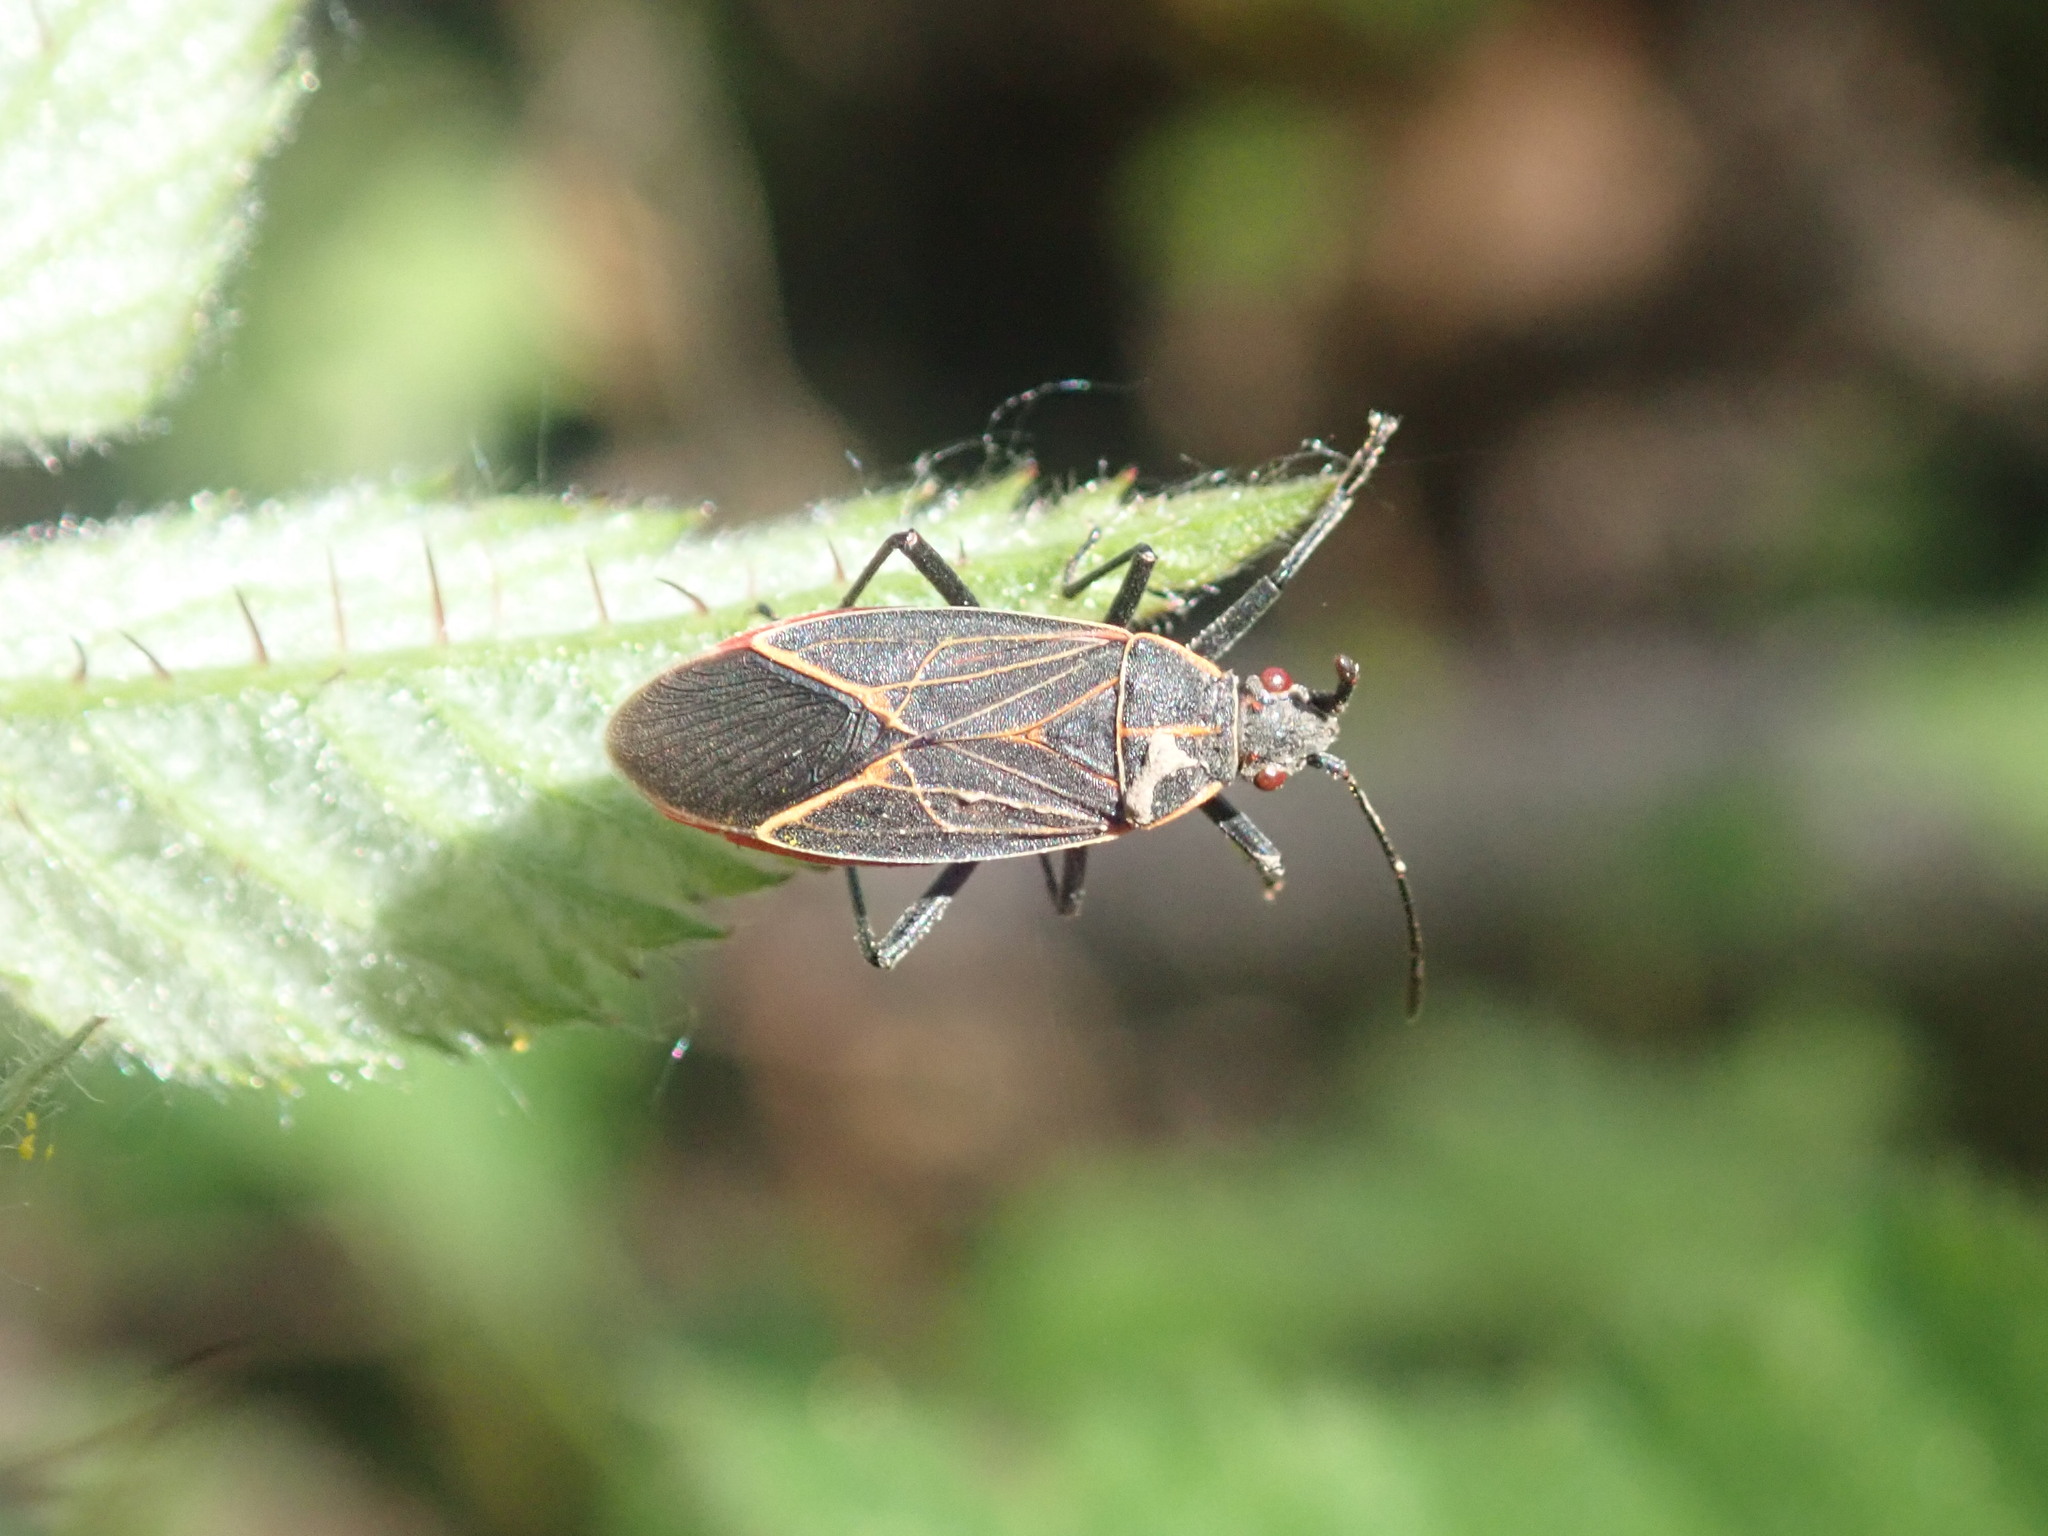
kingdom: Animalia
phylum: Arthropoda
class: Insecta
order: Hemiptera
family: Rhopalidae
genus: Boisea
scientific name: Boisea rubrolineata
